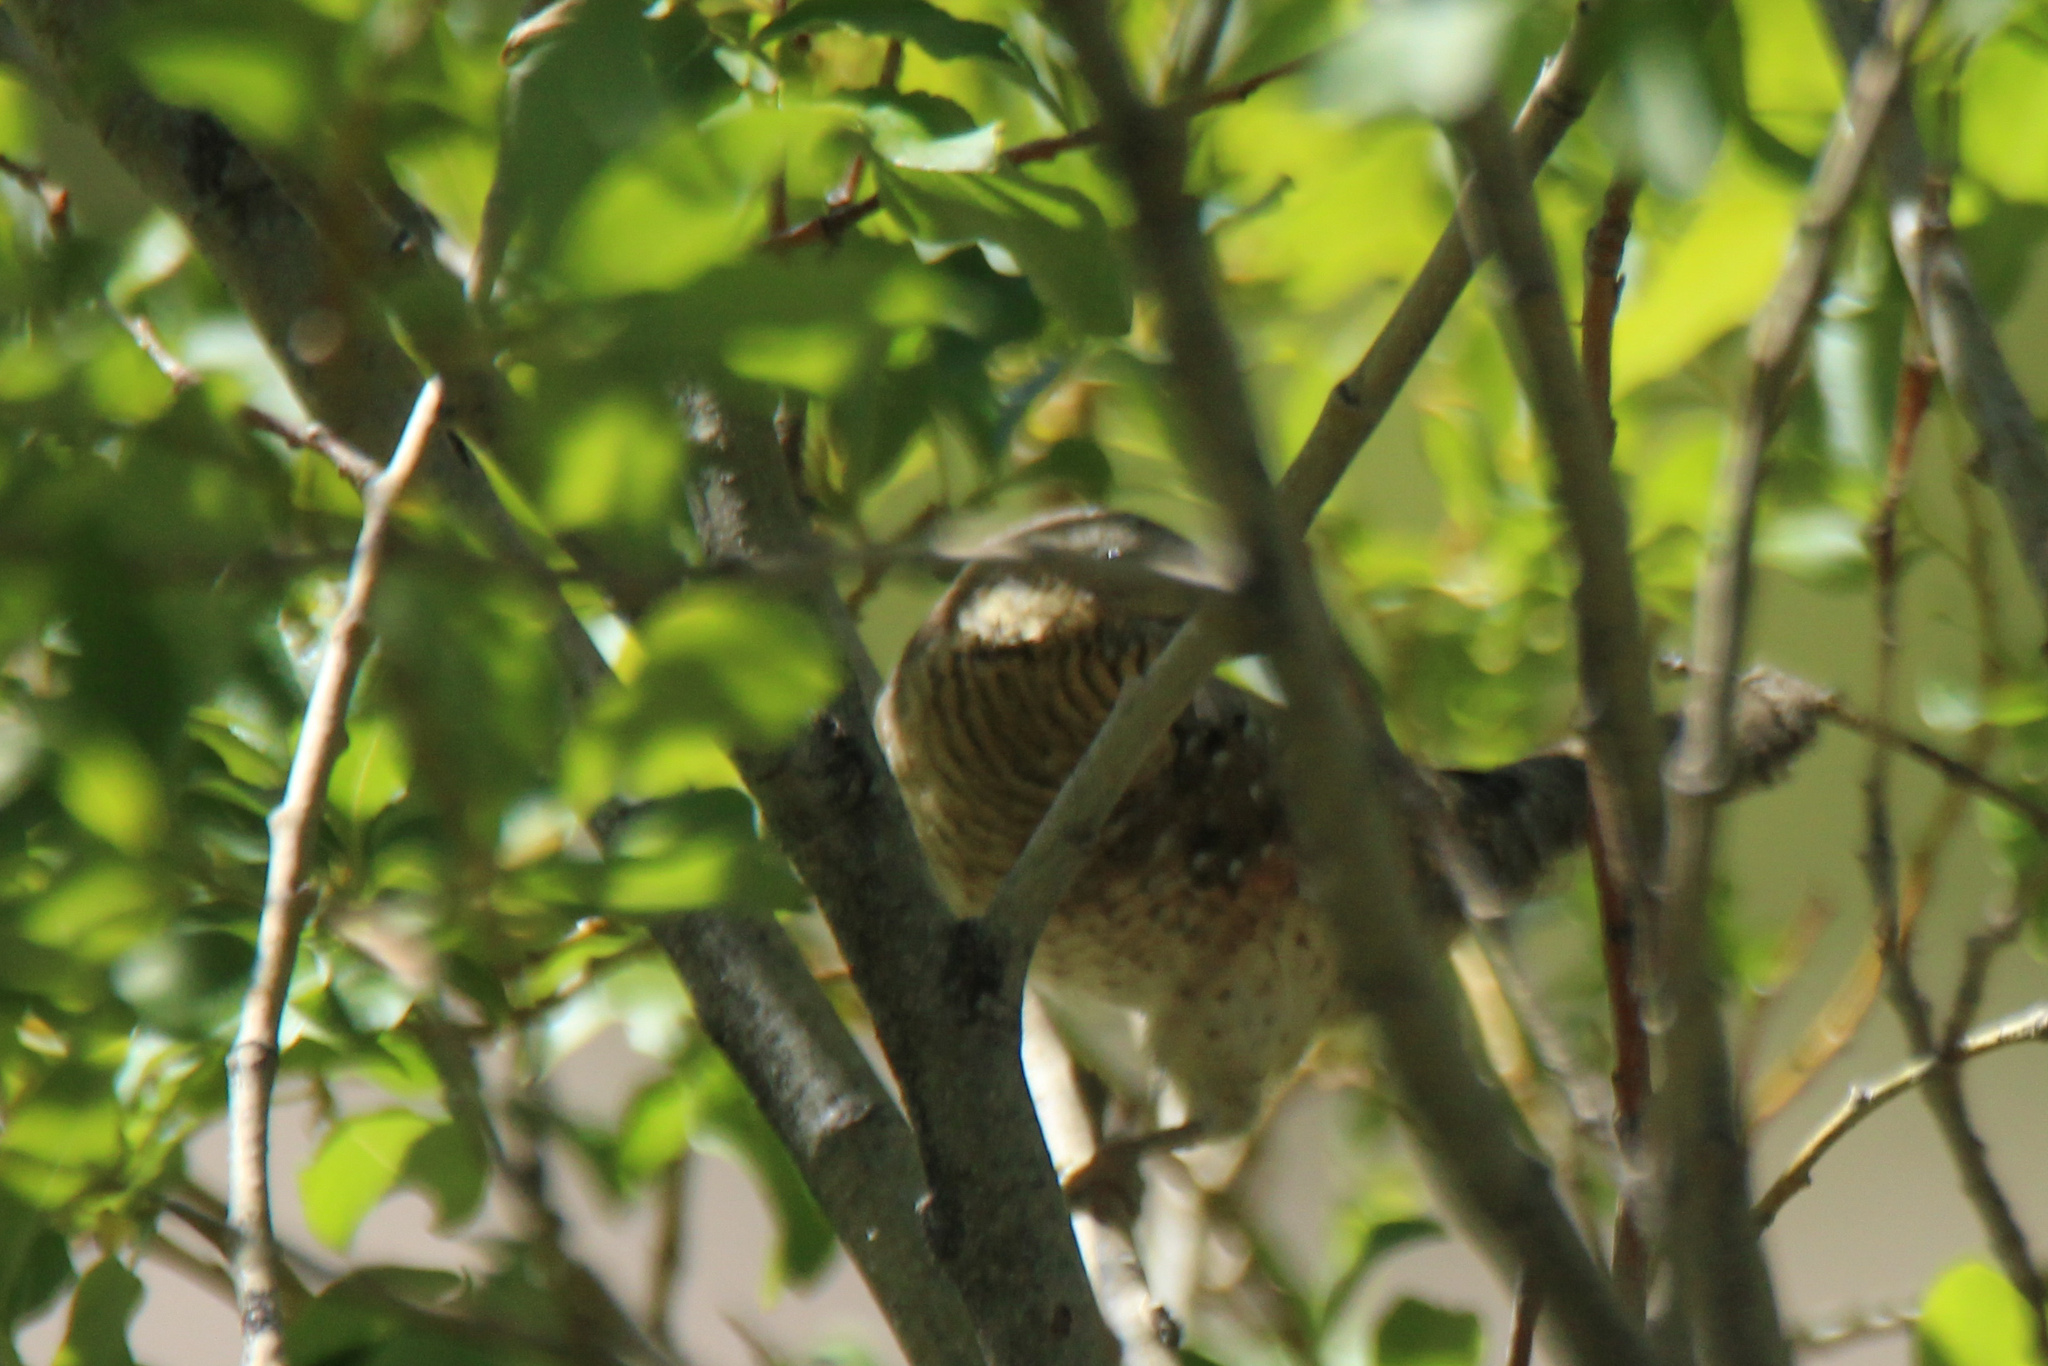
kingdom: Animalia
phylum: Chordata
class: Aves
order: Piciformes
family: Picidae
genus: Jynx
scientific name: Jynx torquilla
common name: Eurasian wryneck
